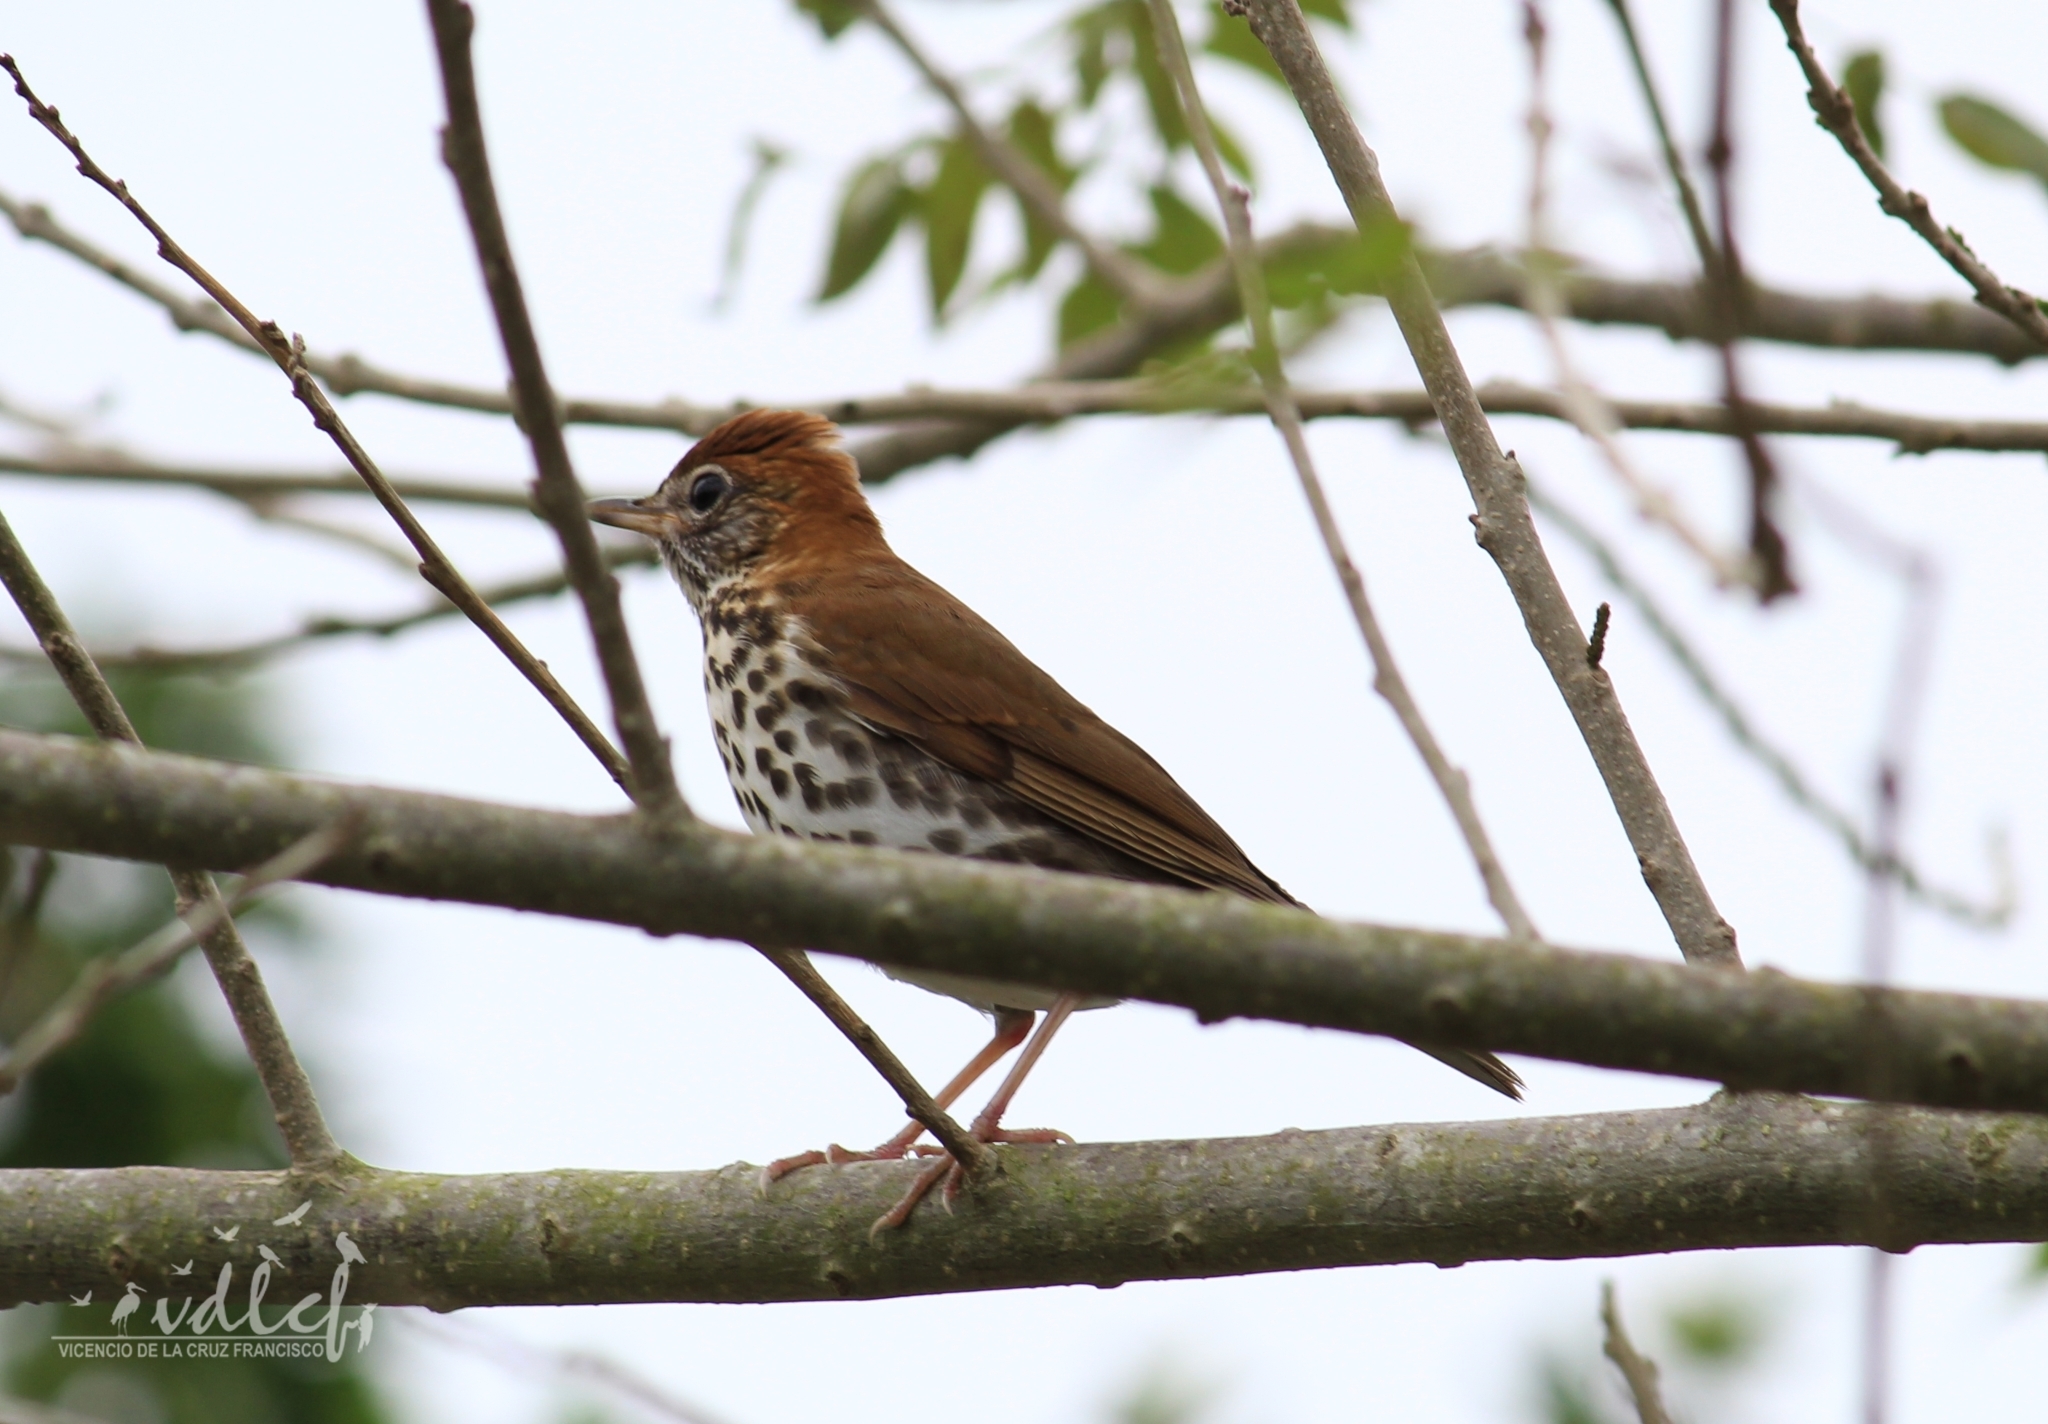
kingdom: Animalia
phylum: Chordata
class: Aves
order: Passeriformes
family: Turdidae
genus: Hylocichla
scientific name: Hylocichla mustelina
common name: Wood thrush
